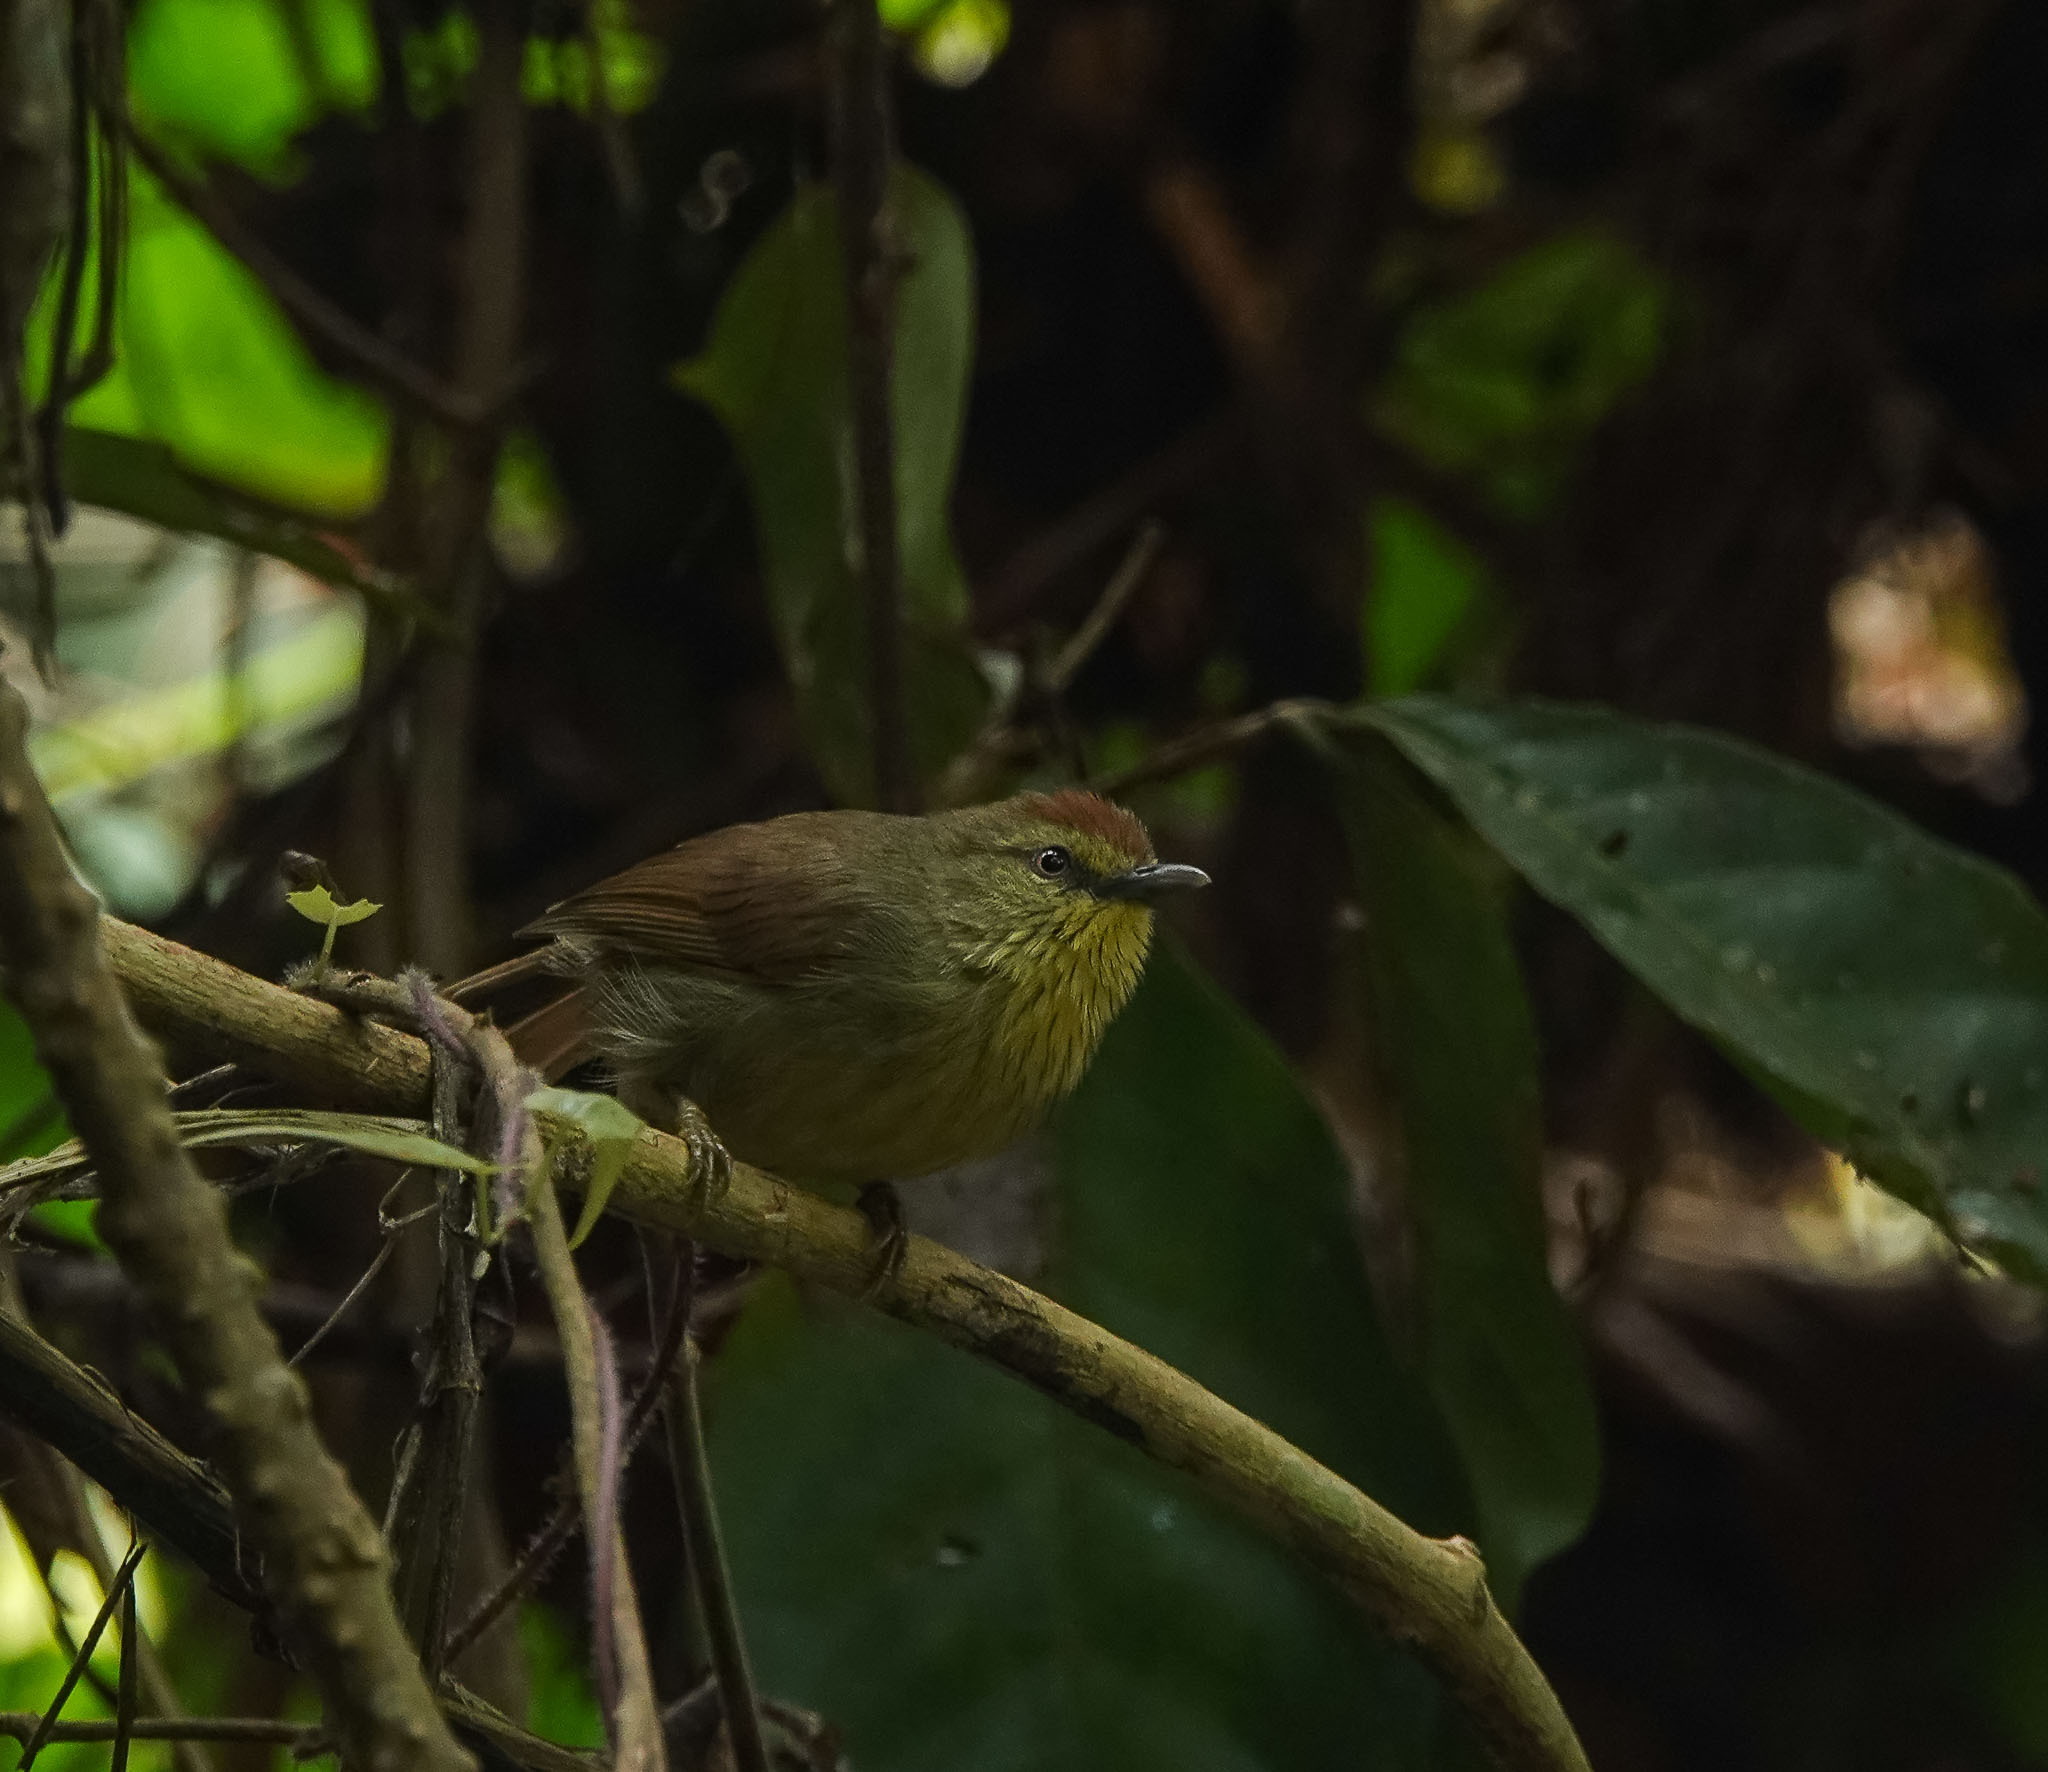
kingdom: Animalia
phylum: Chordata
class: Aves
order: Passeriformes
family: Timaliidae
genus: Macronus
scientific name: Macronus gularis
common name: Striped tit-babbler
